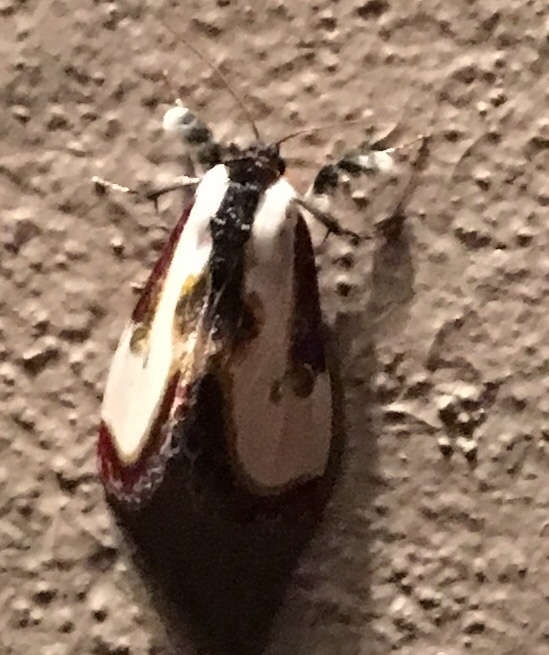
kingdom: Animalia
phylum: Arthropoda
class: Insecta
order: Lepidoptera
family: Noctuidae
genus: Eudryas
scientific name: Eudryas grata
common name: Beautiful wood-nymph
